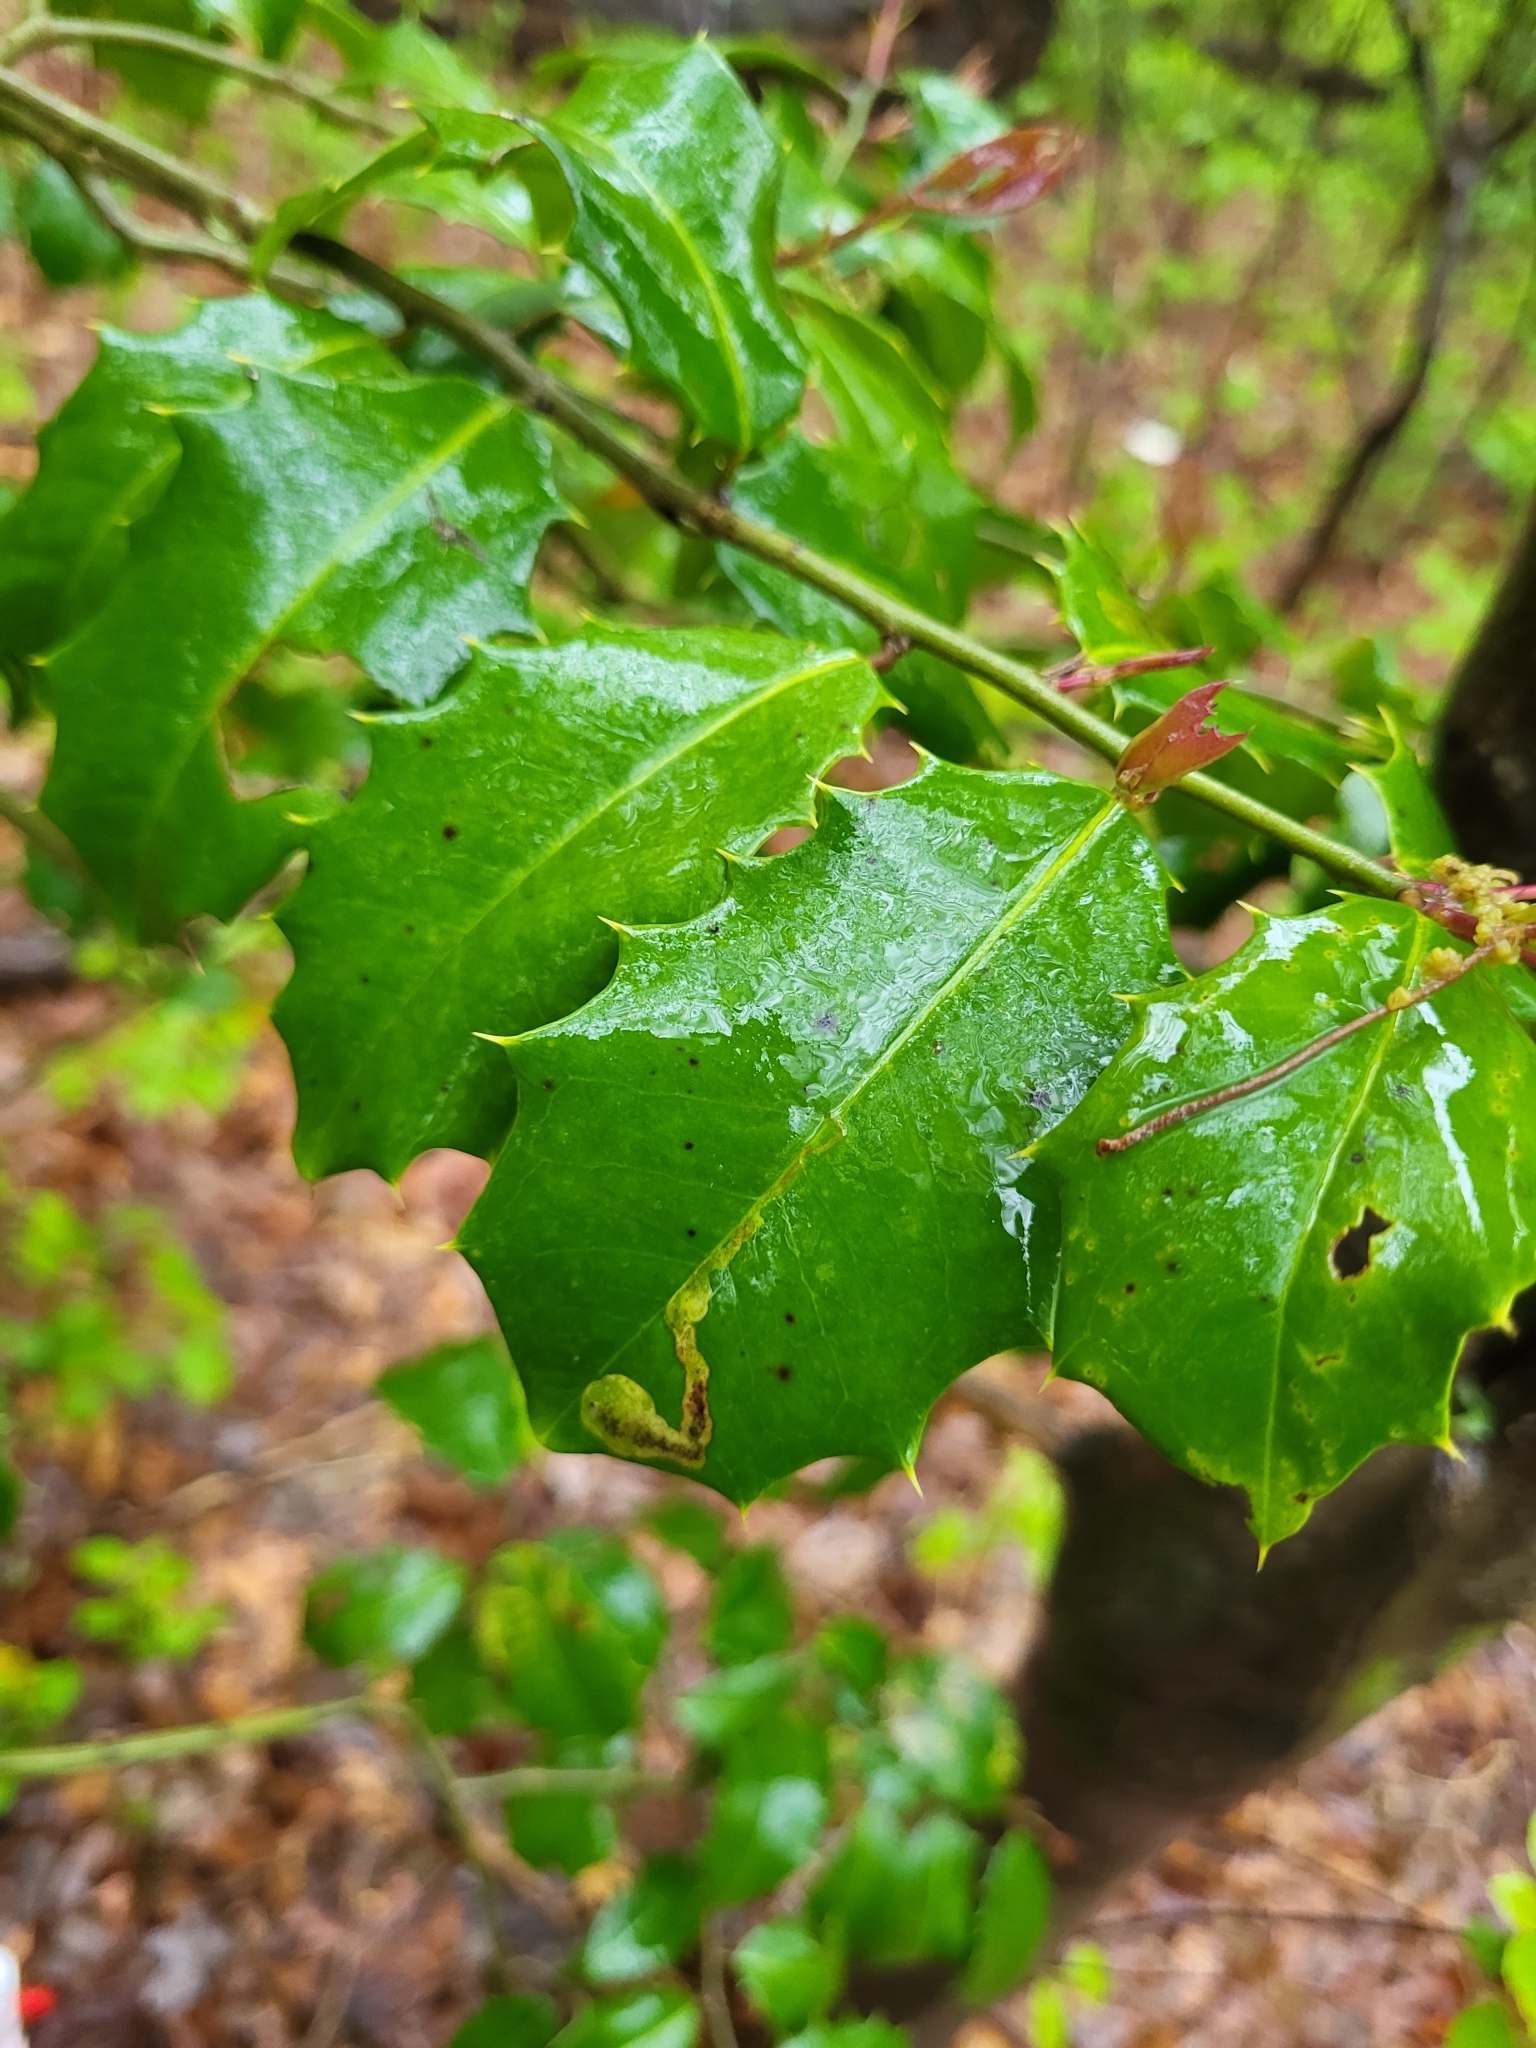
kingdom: Plantae
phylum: Tracheophyta
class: Magnoliopsida
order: Aquifoliales
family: Aquifoliaceae
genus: Ilex
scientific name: Ilex opaca
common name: American holly
